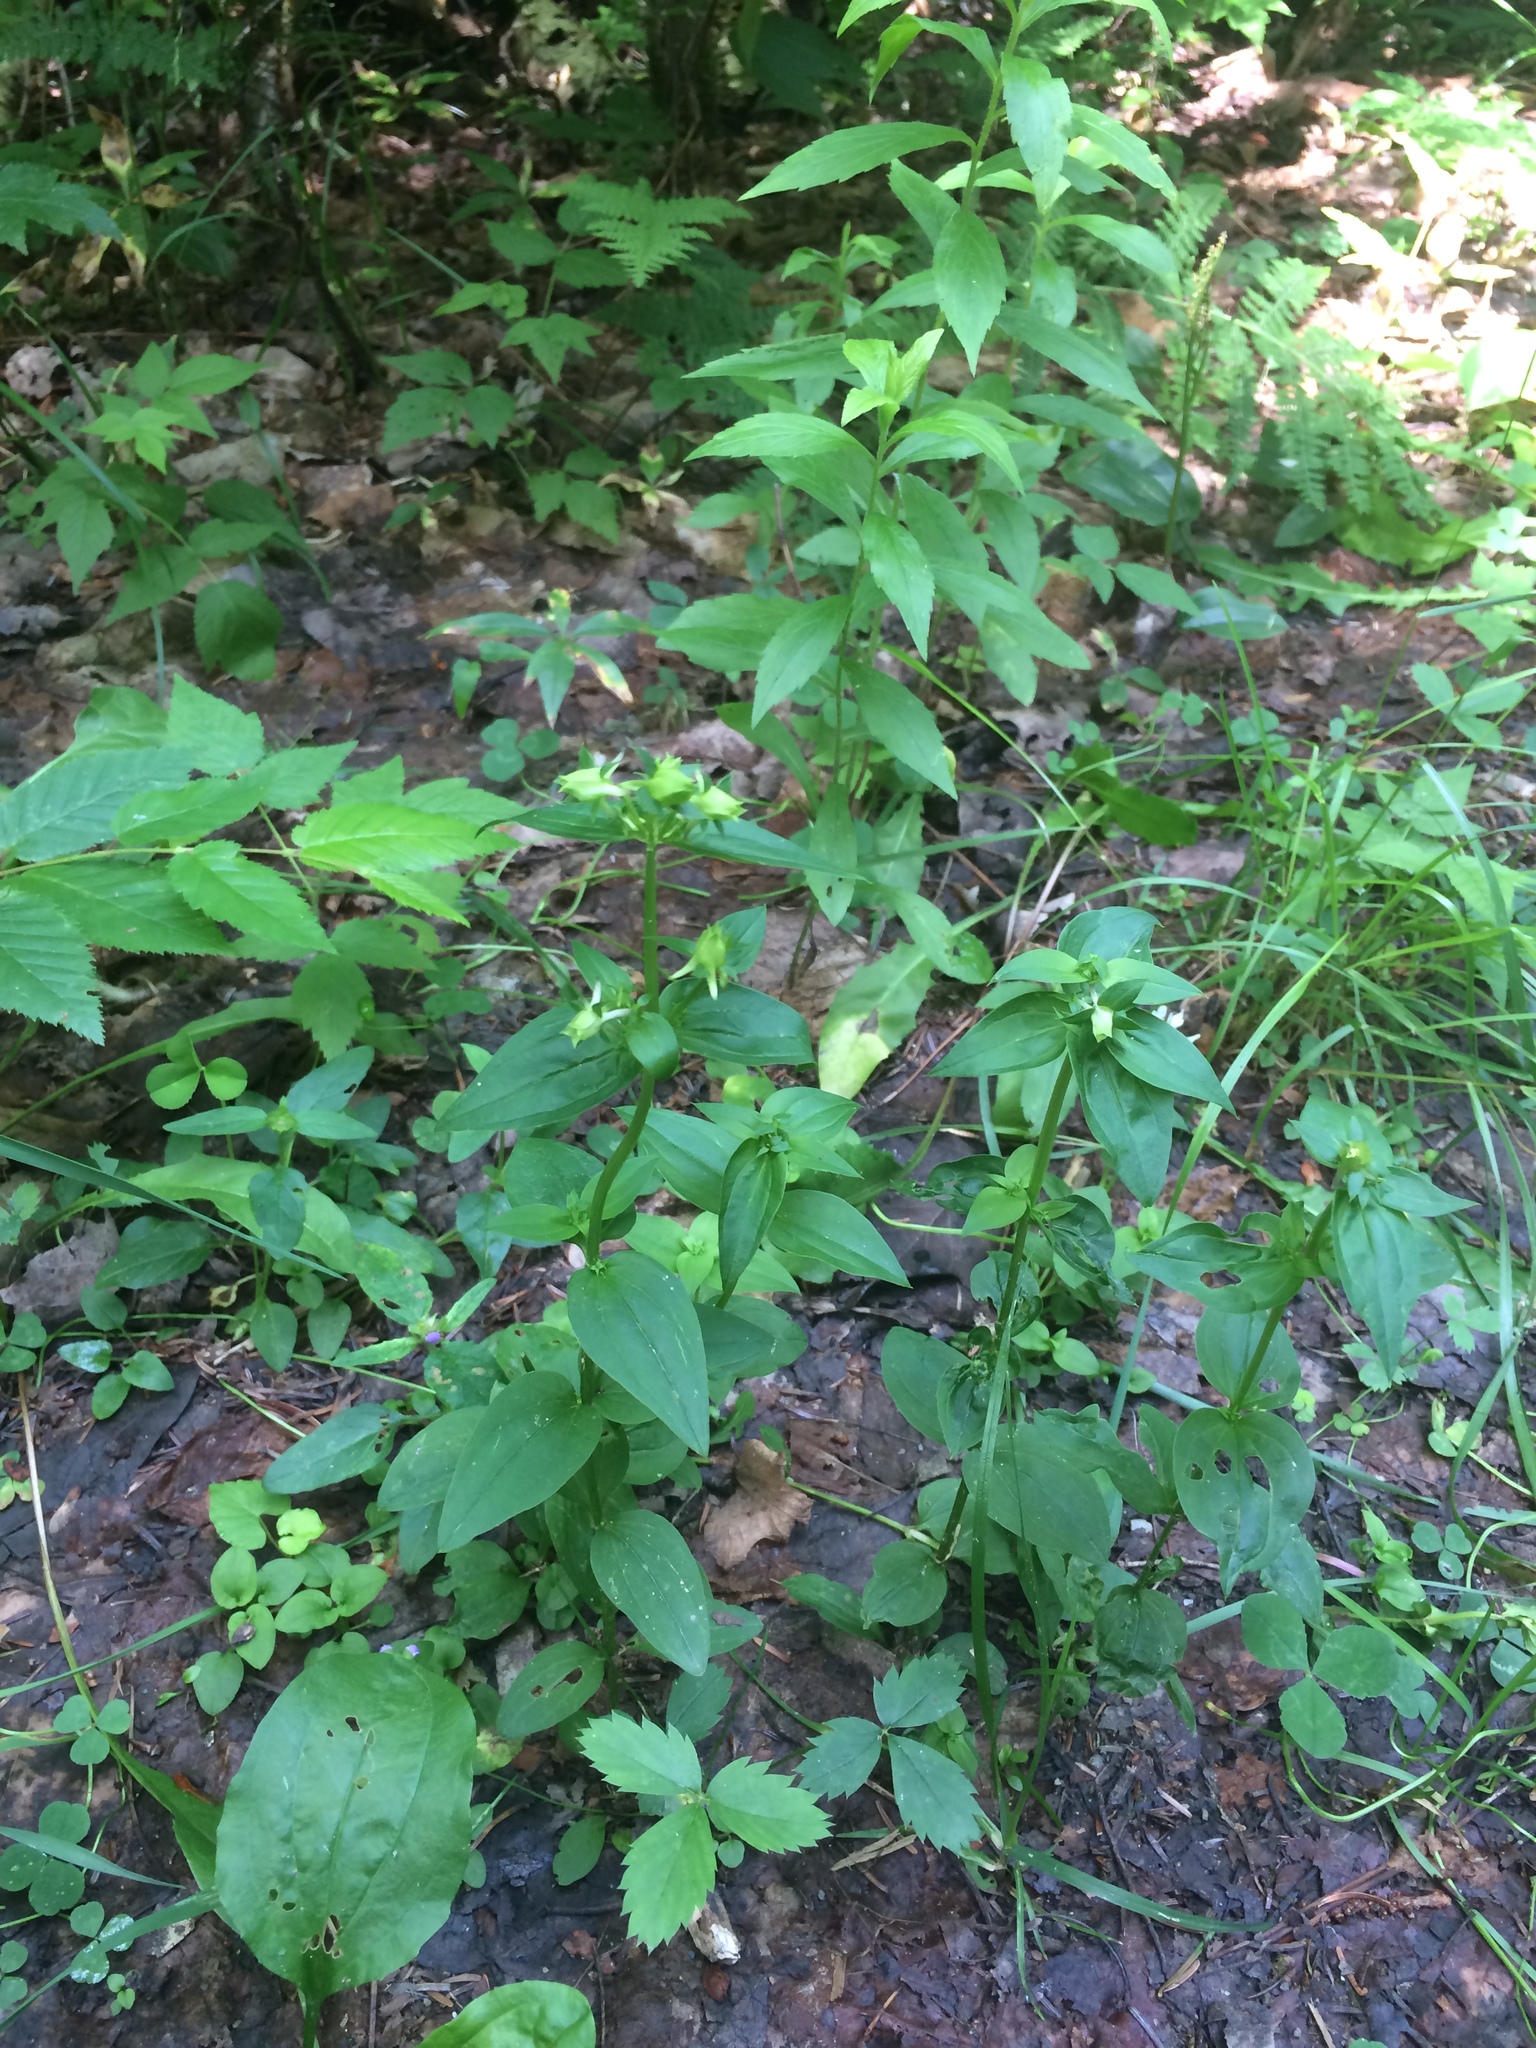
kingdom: Plantae
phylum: Tracheophyta
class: Magnoliopsida
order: Gentianales
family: Gentianaceae
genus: Halenia
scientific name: Halenia deflexa
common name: American spurred gentian
